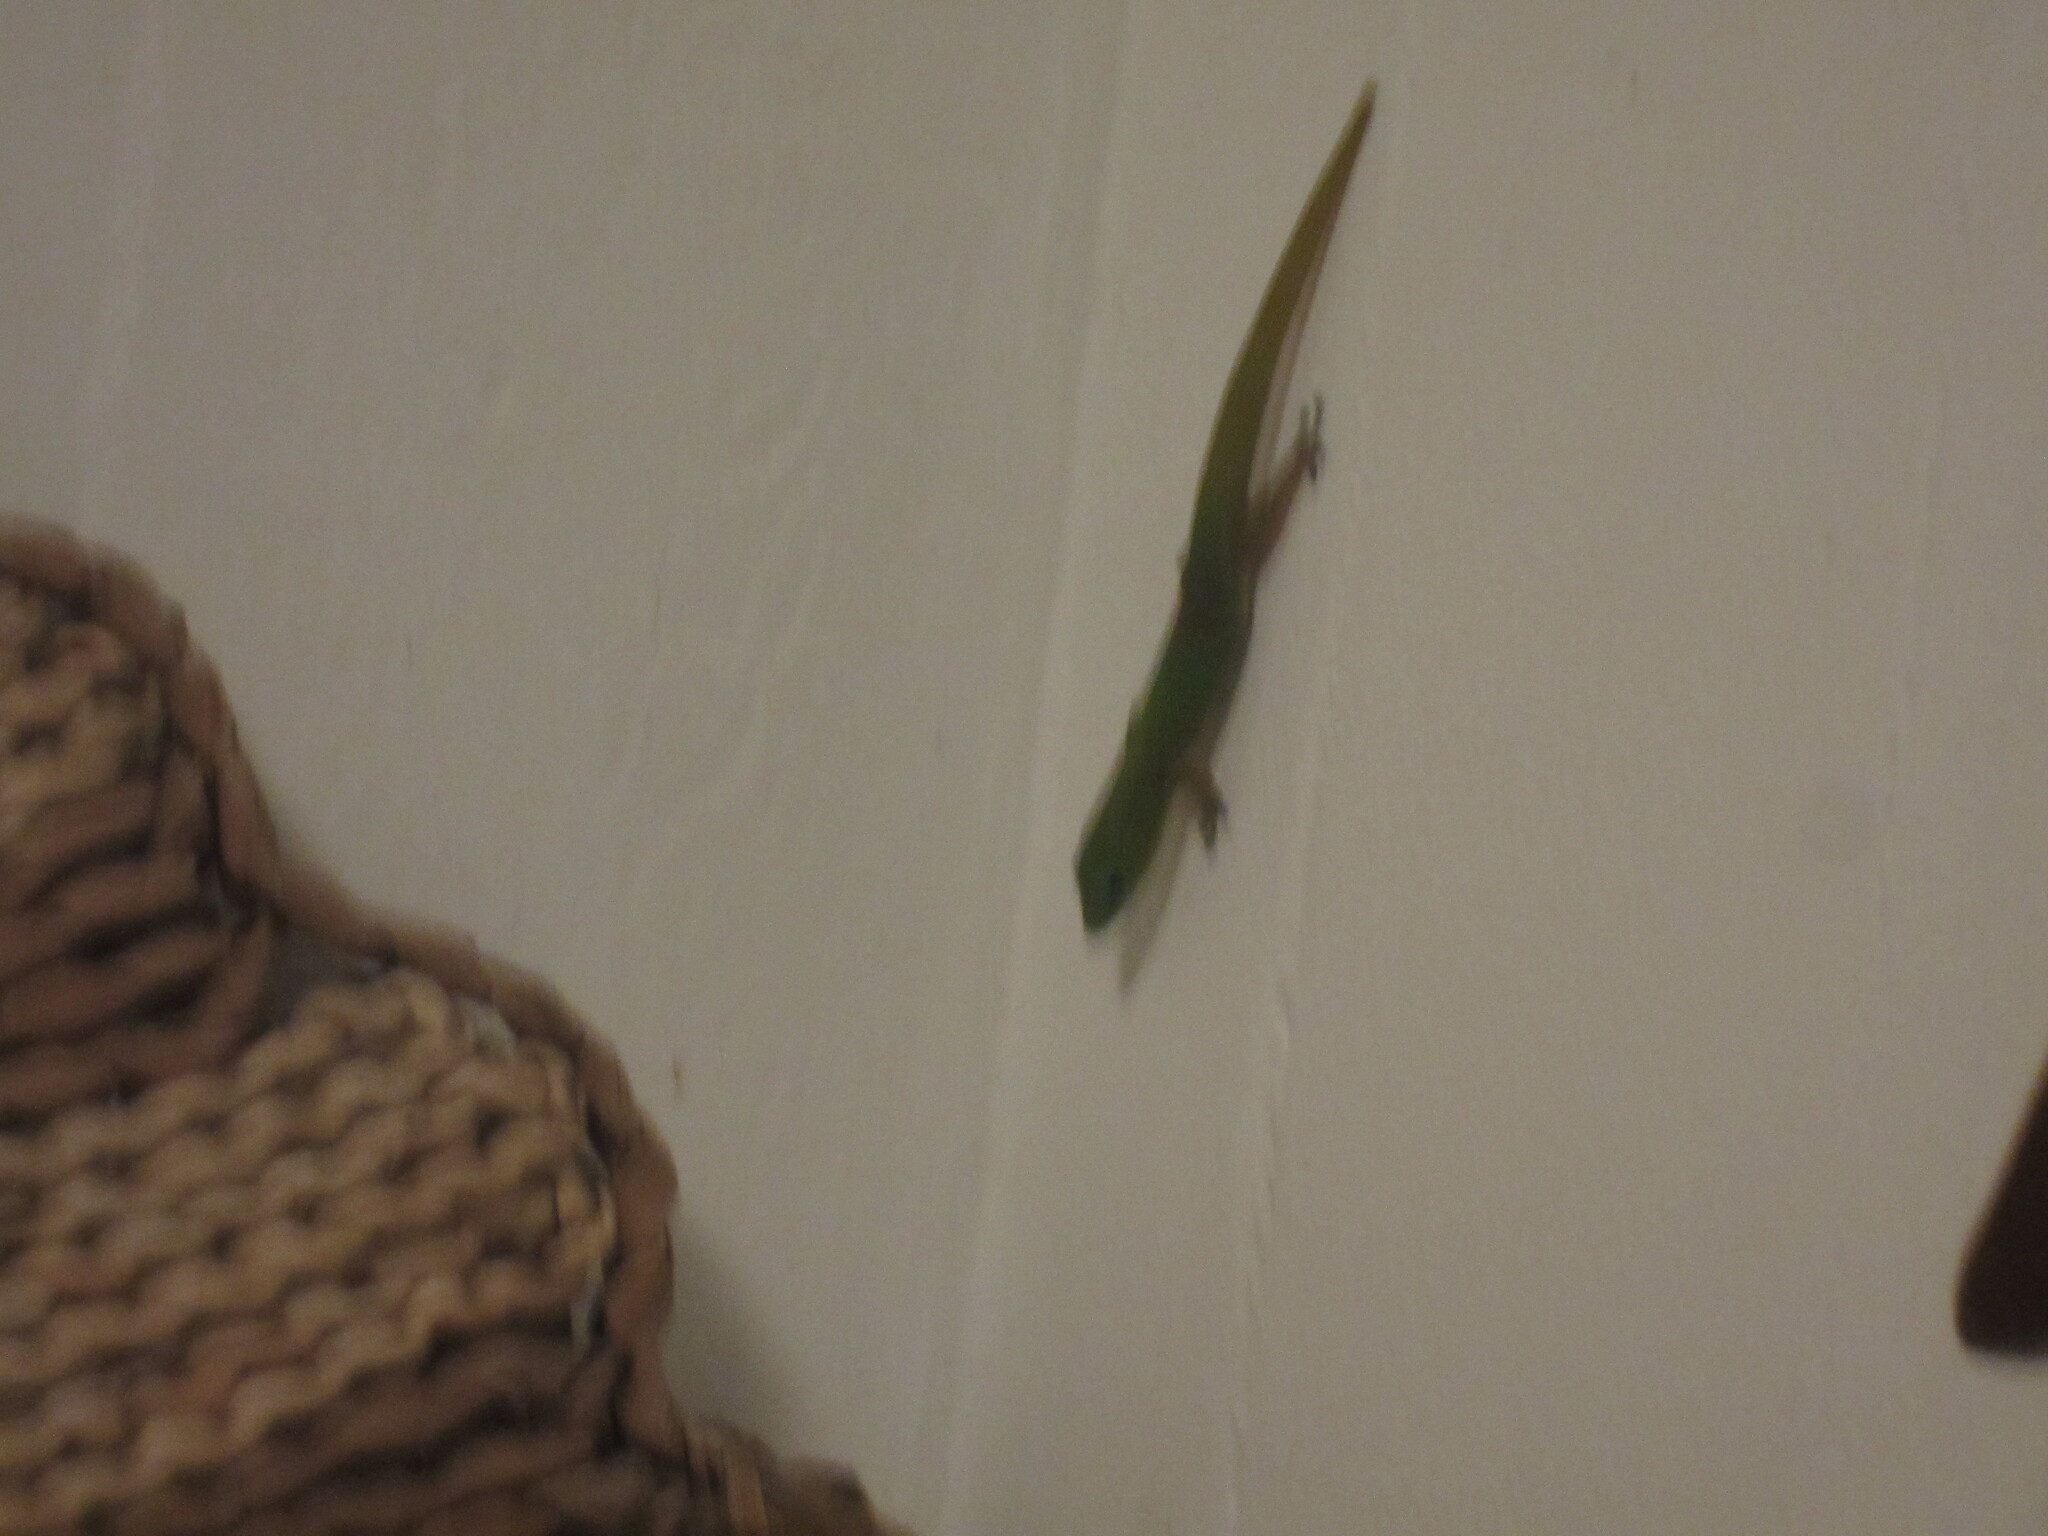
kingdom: Animalia
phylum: Chordata
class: Squamata
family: Gekkonidae
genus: Phelsuma
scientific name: Phelsuma laticauda
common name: Gold dust day gecko
